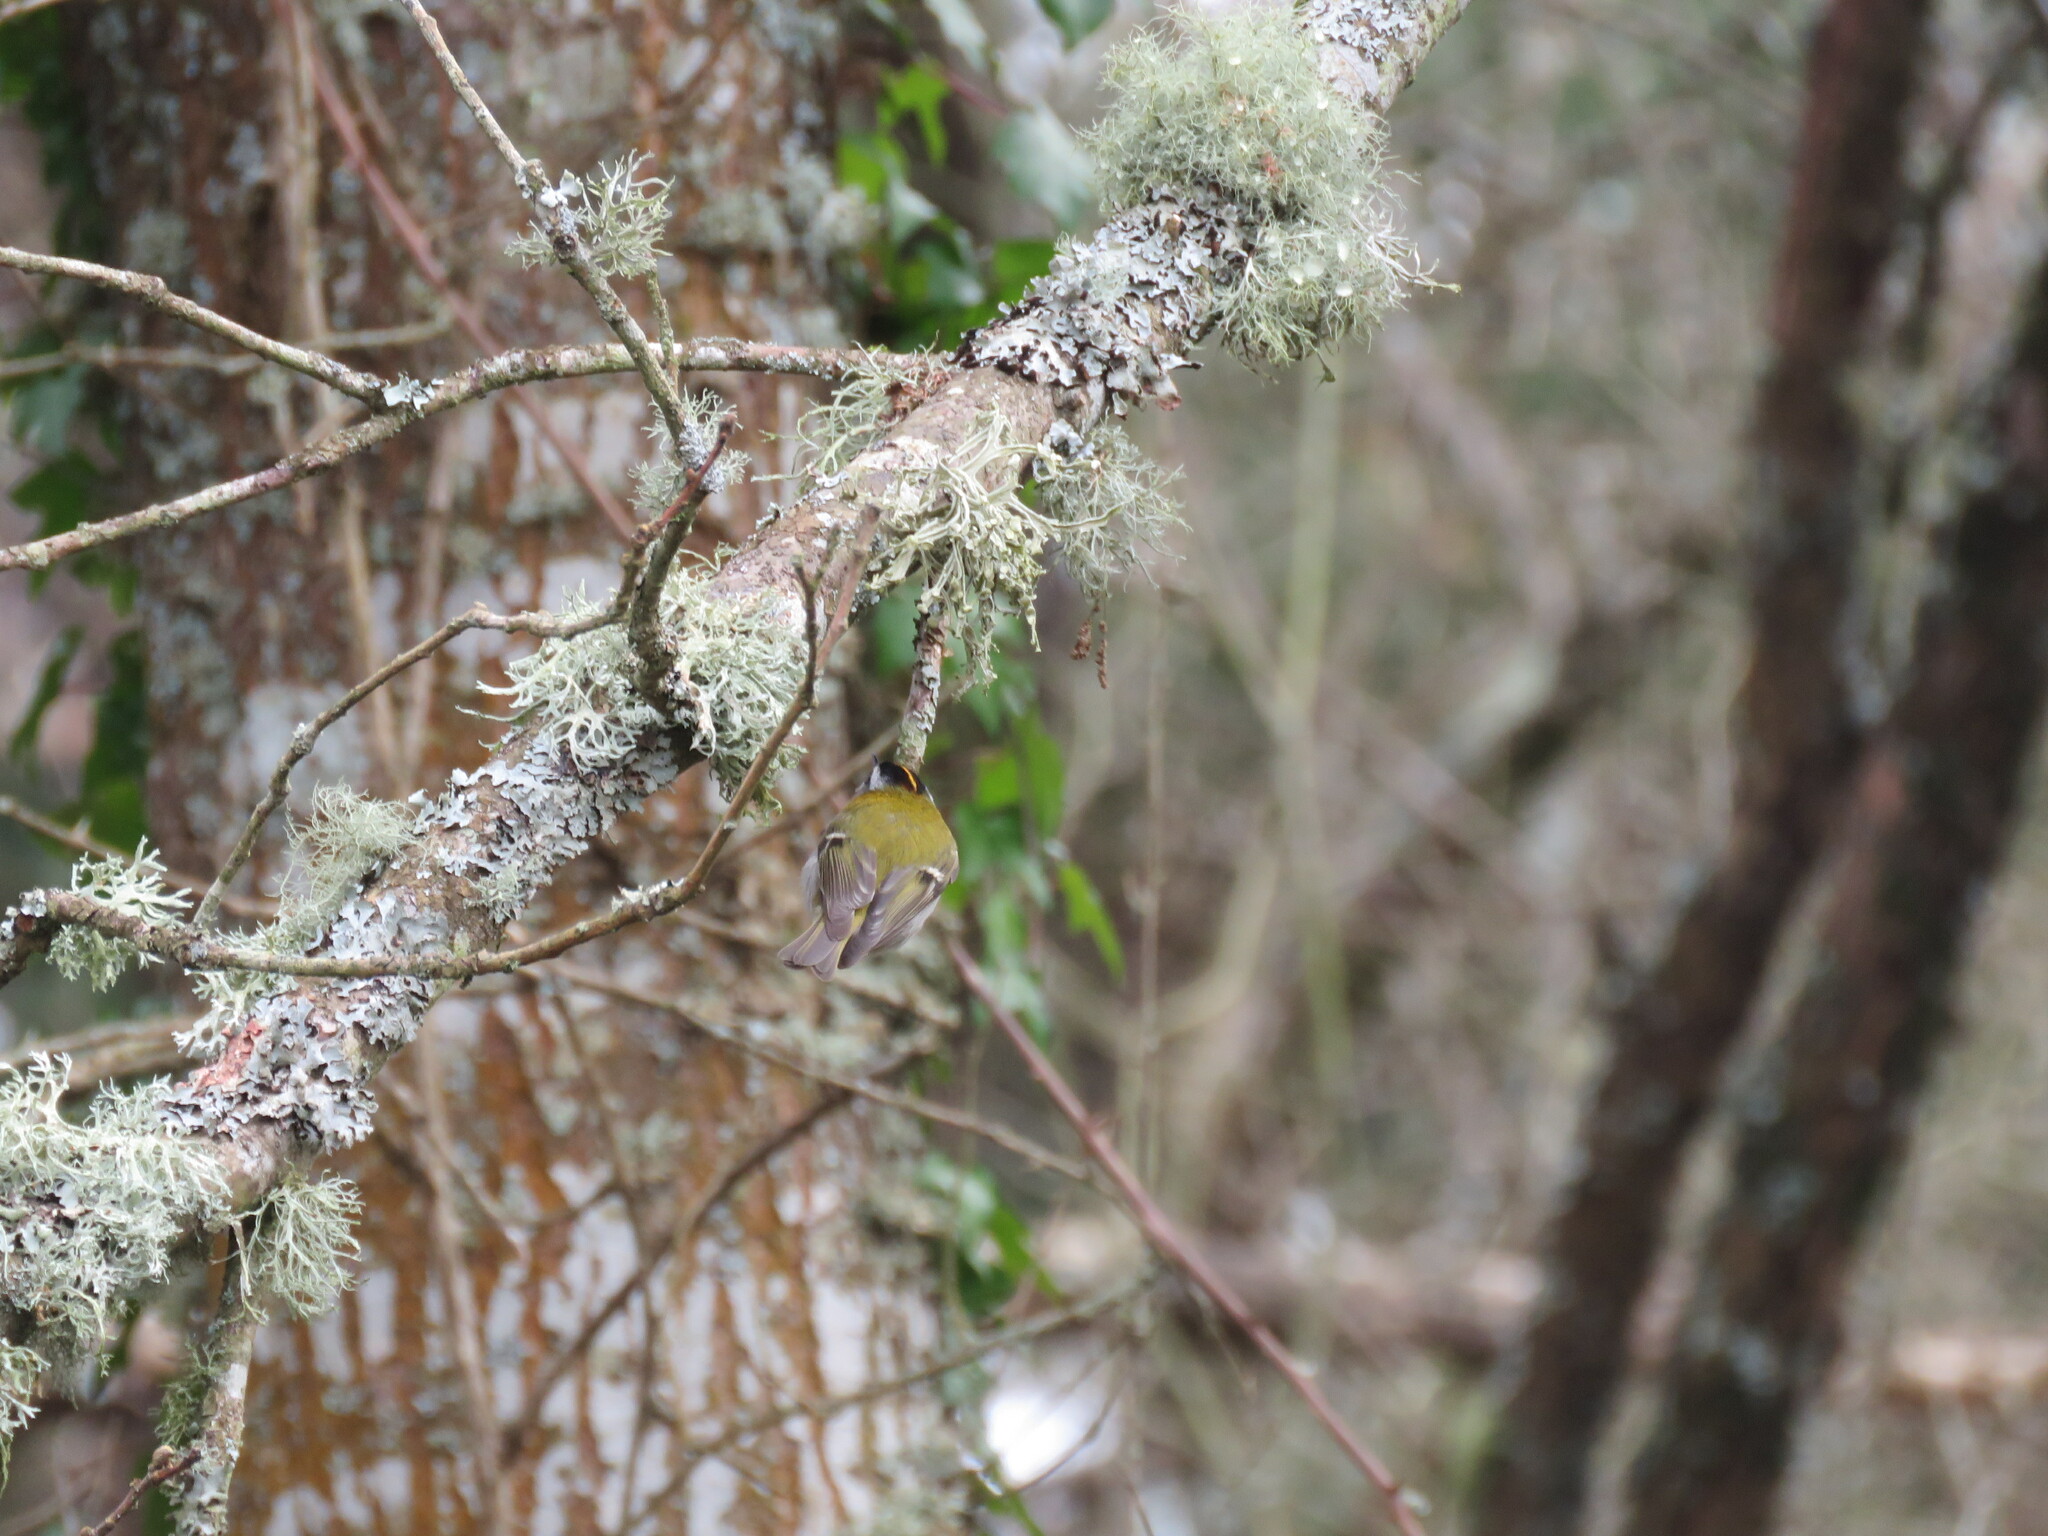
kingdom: Animalia
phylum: Chordata
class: Aves
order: Passeriformes
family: Regulidae
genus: Regulus
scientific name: Regulus ignicapilla
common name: Firecrest
